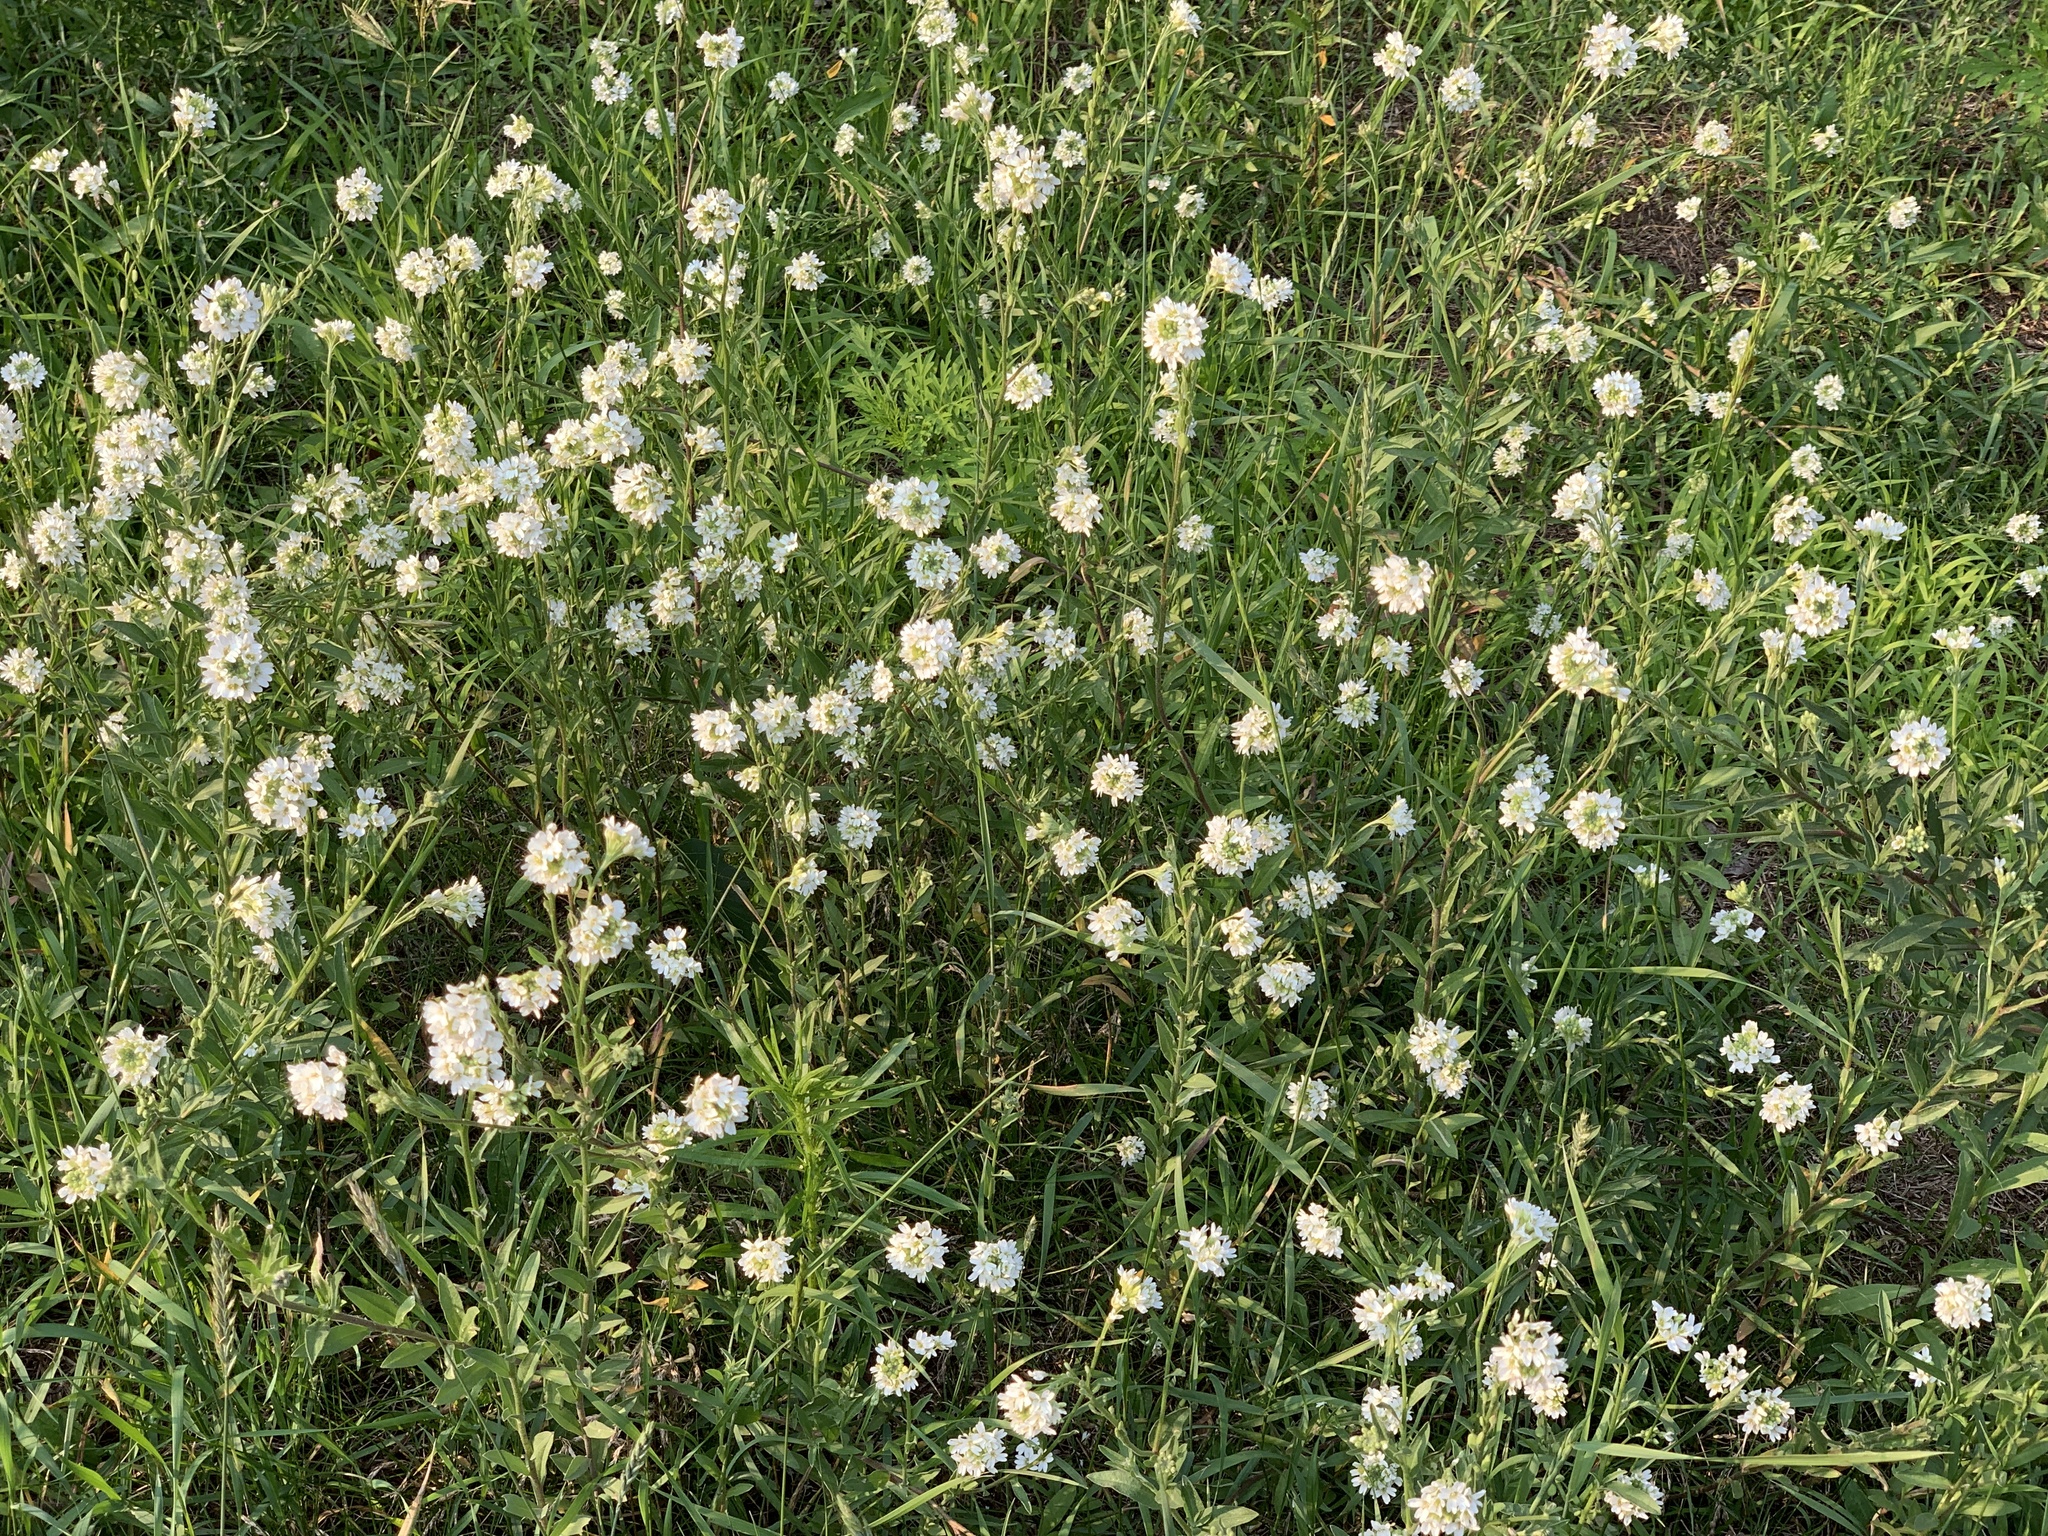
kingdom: Plantae
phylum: Tracheophyta
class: Magnoliopsida
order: Brassicales
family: Brassicaceae
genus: Berteroa
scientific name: Berteroa incana
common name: Hoary alison
